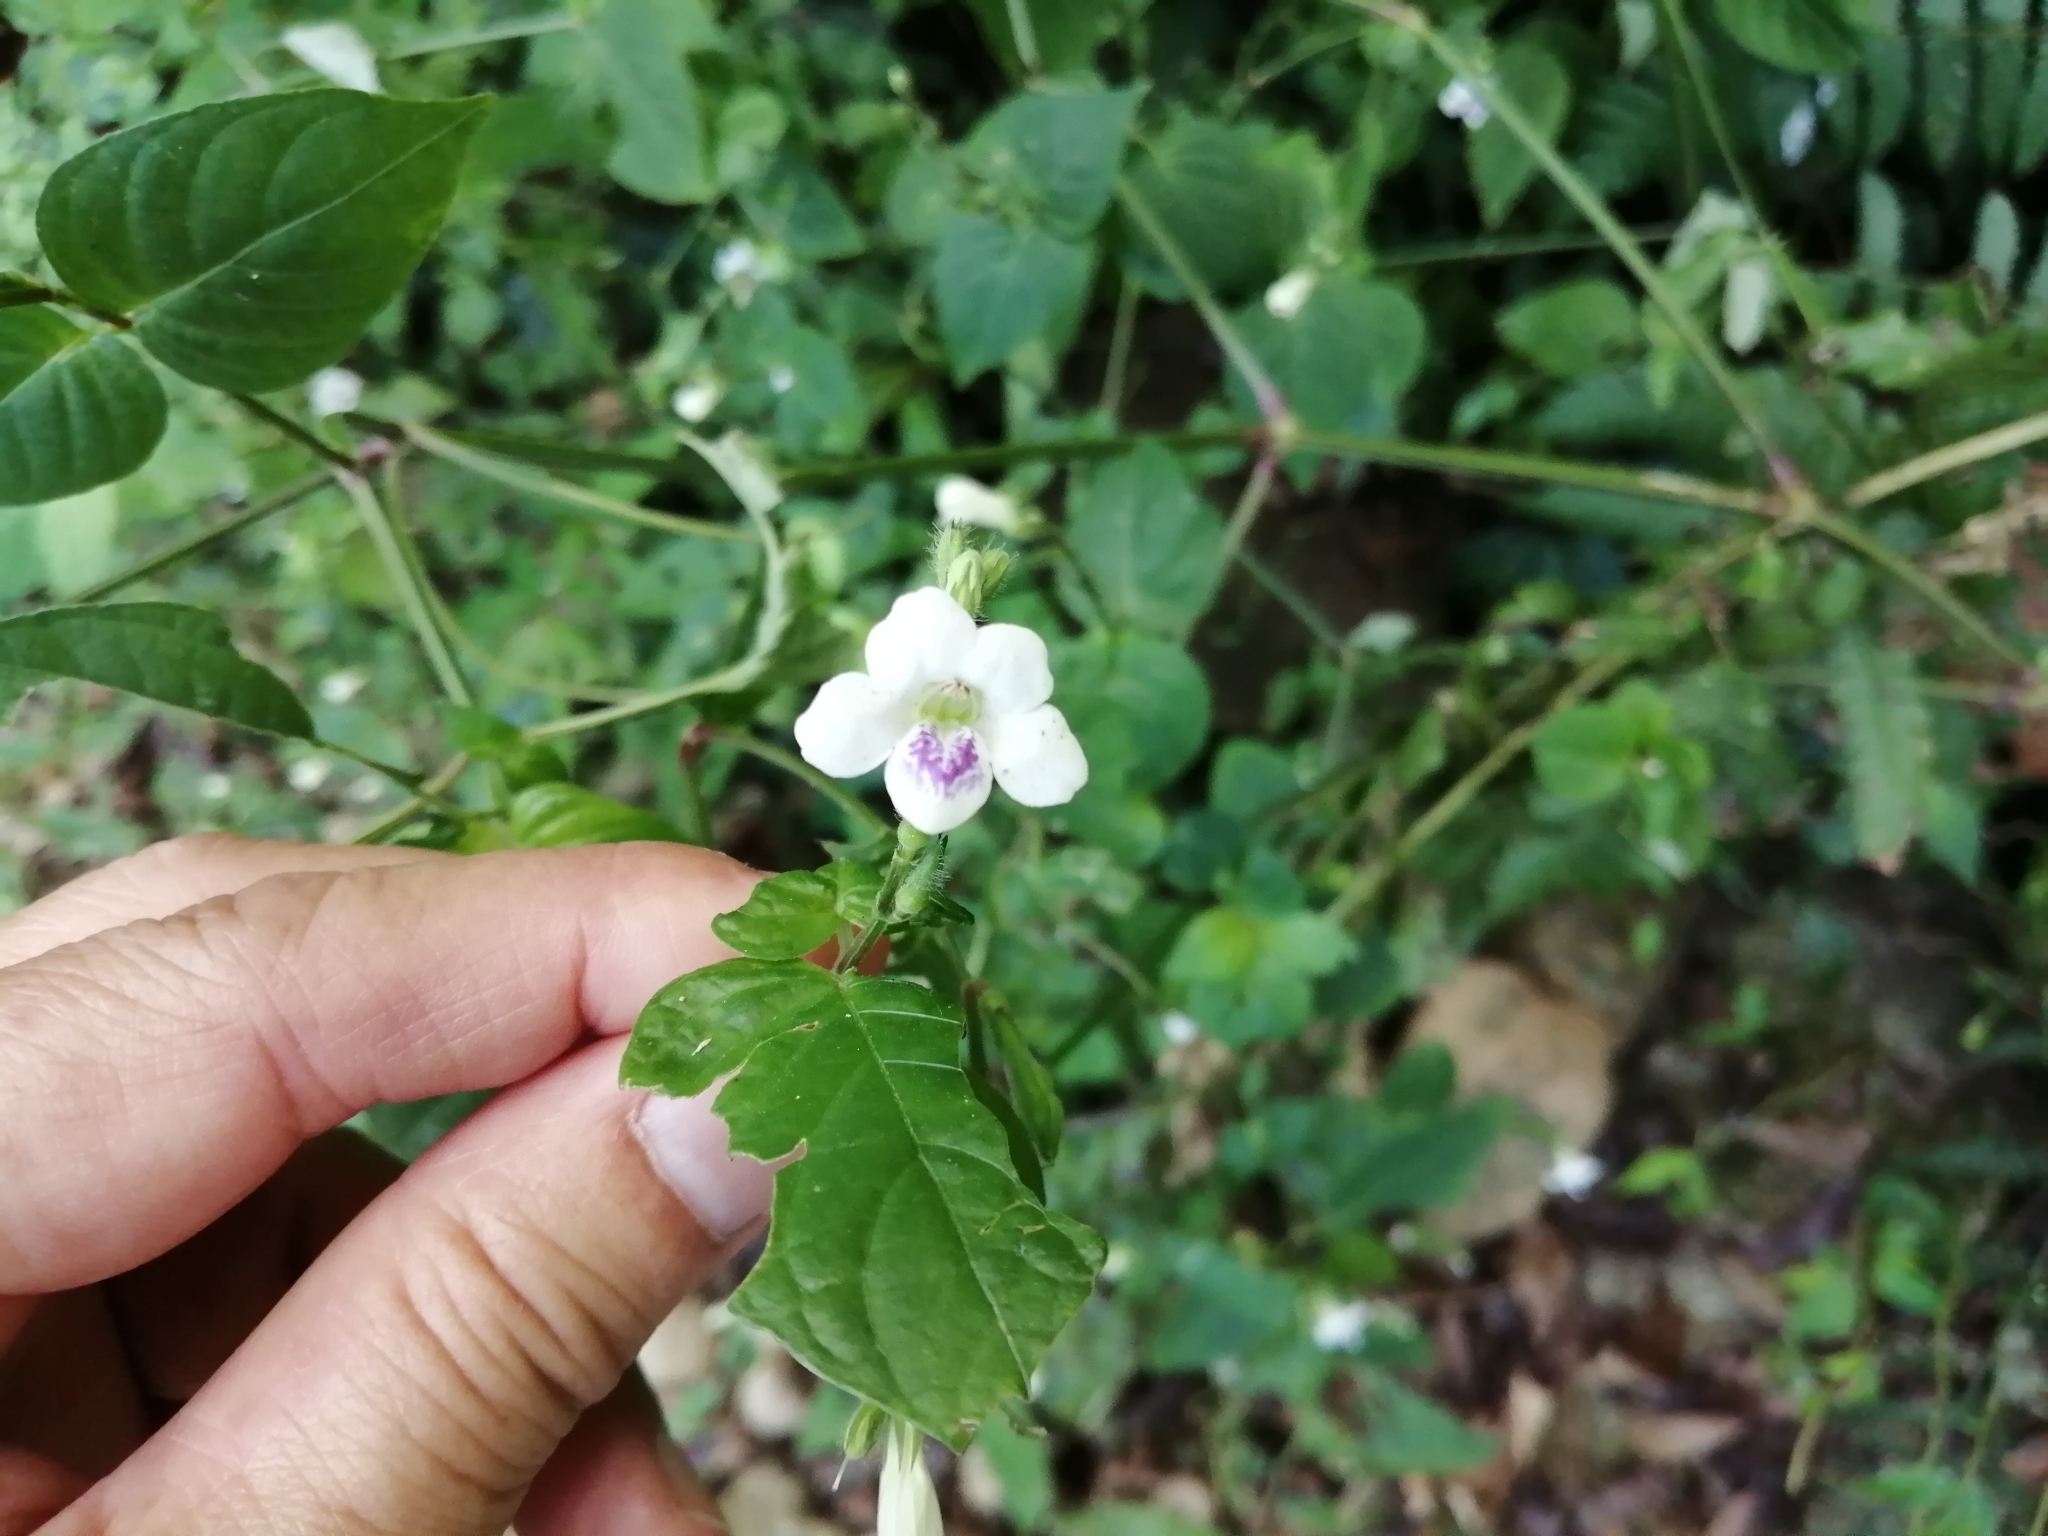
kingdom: Plantae
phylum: Tracheophyta
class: Magnoliopsida
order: Lamiales
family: Acanthaceae
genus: Asystasia
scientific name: Asystasia intrusa
